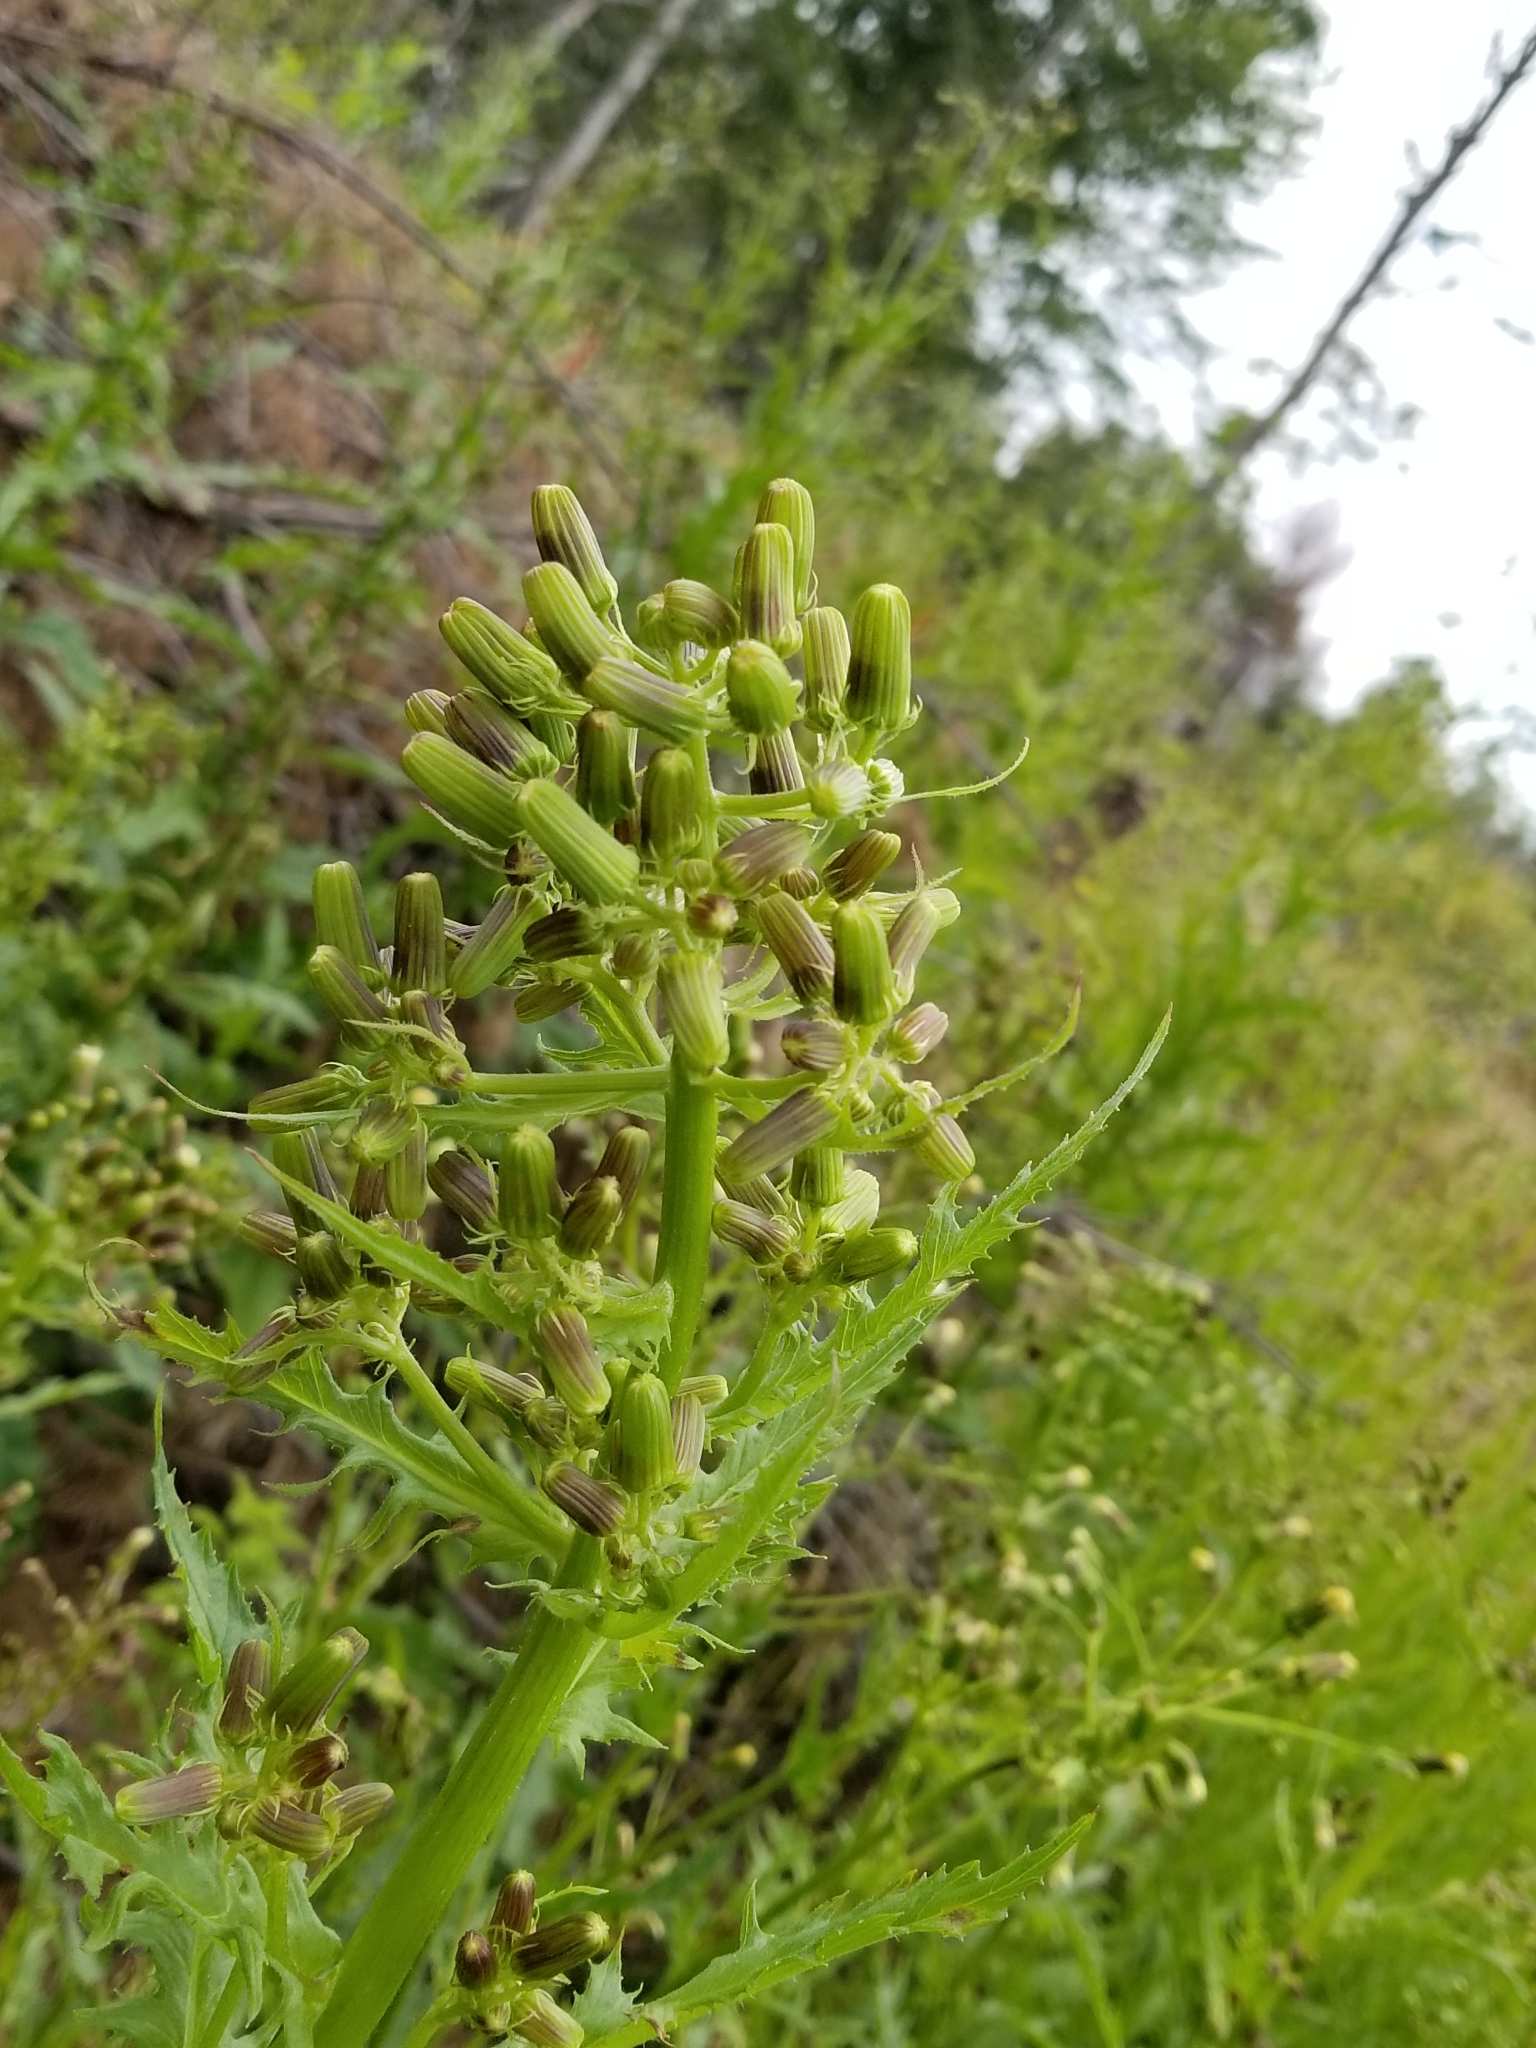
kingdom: Plantae
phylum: Tracheophyta
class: Magnoliopsida
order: Asterales
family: Asteraceae
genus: Erechtites
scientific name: Erechtites hieraciifolius
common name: American burnweed
